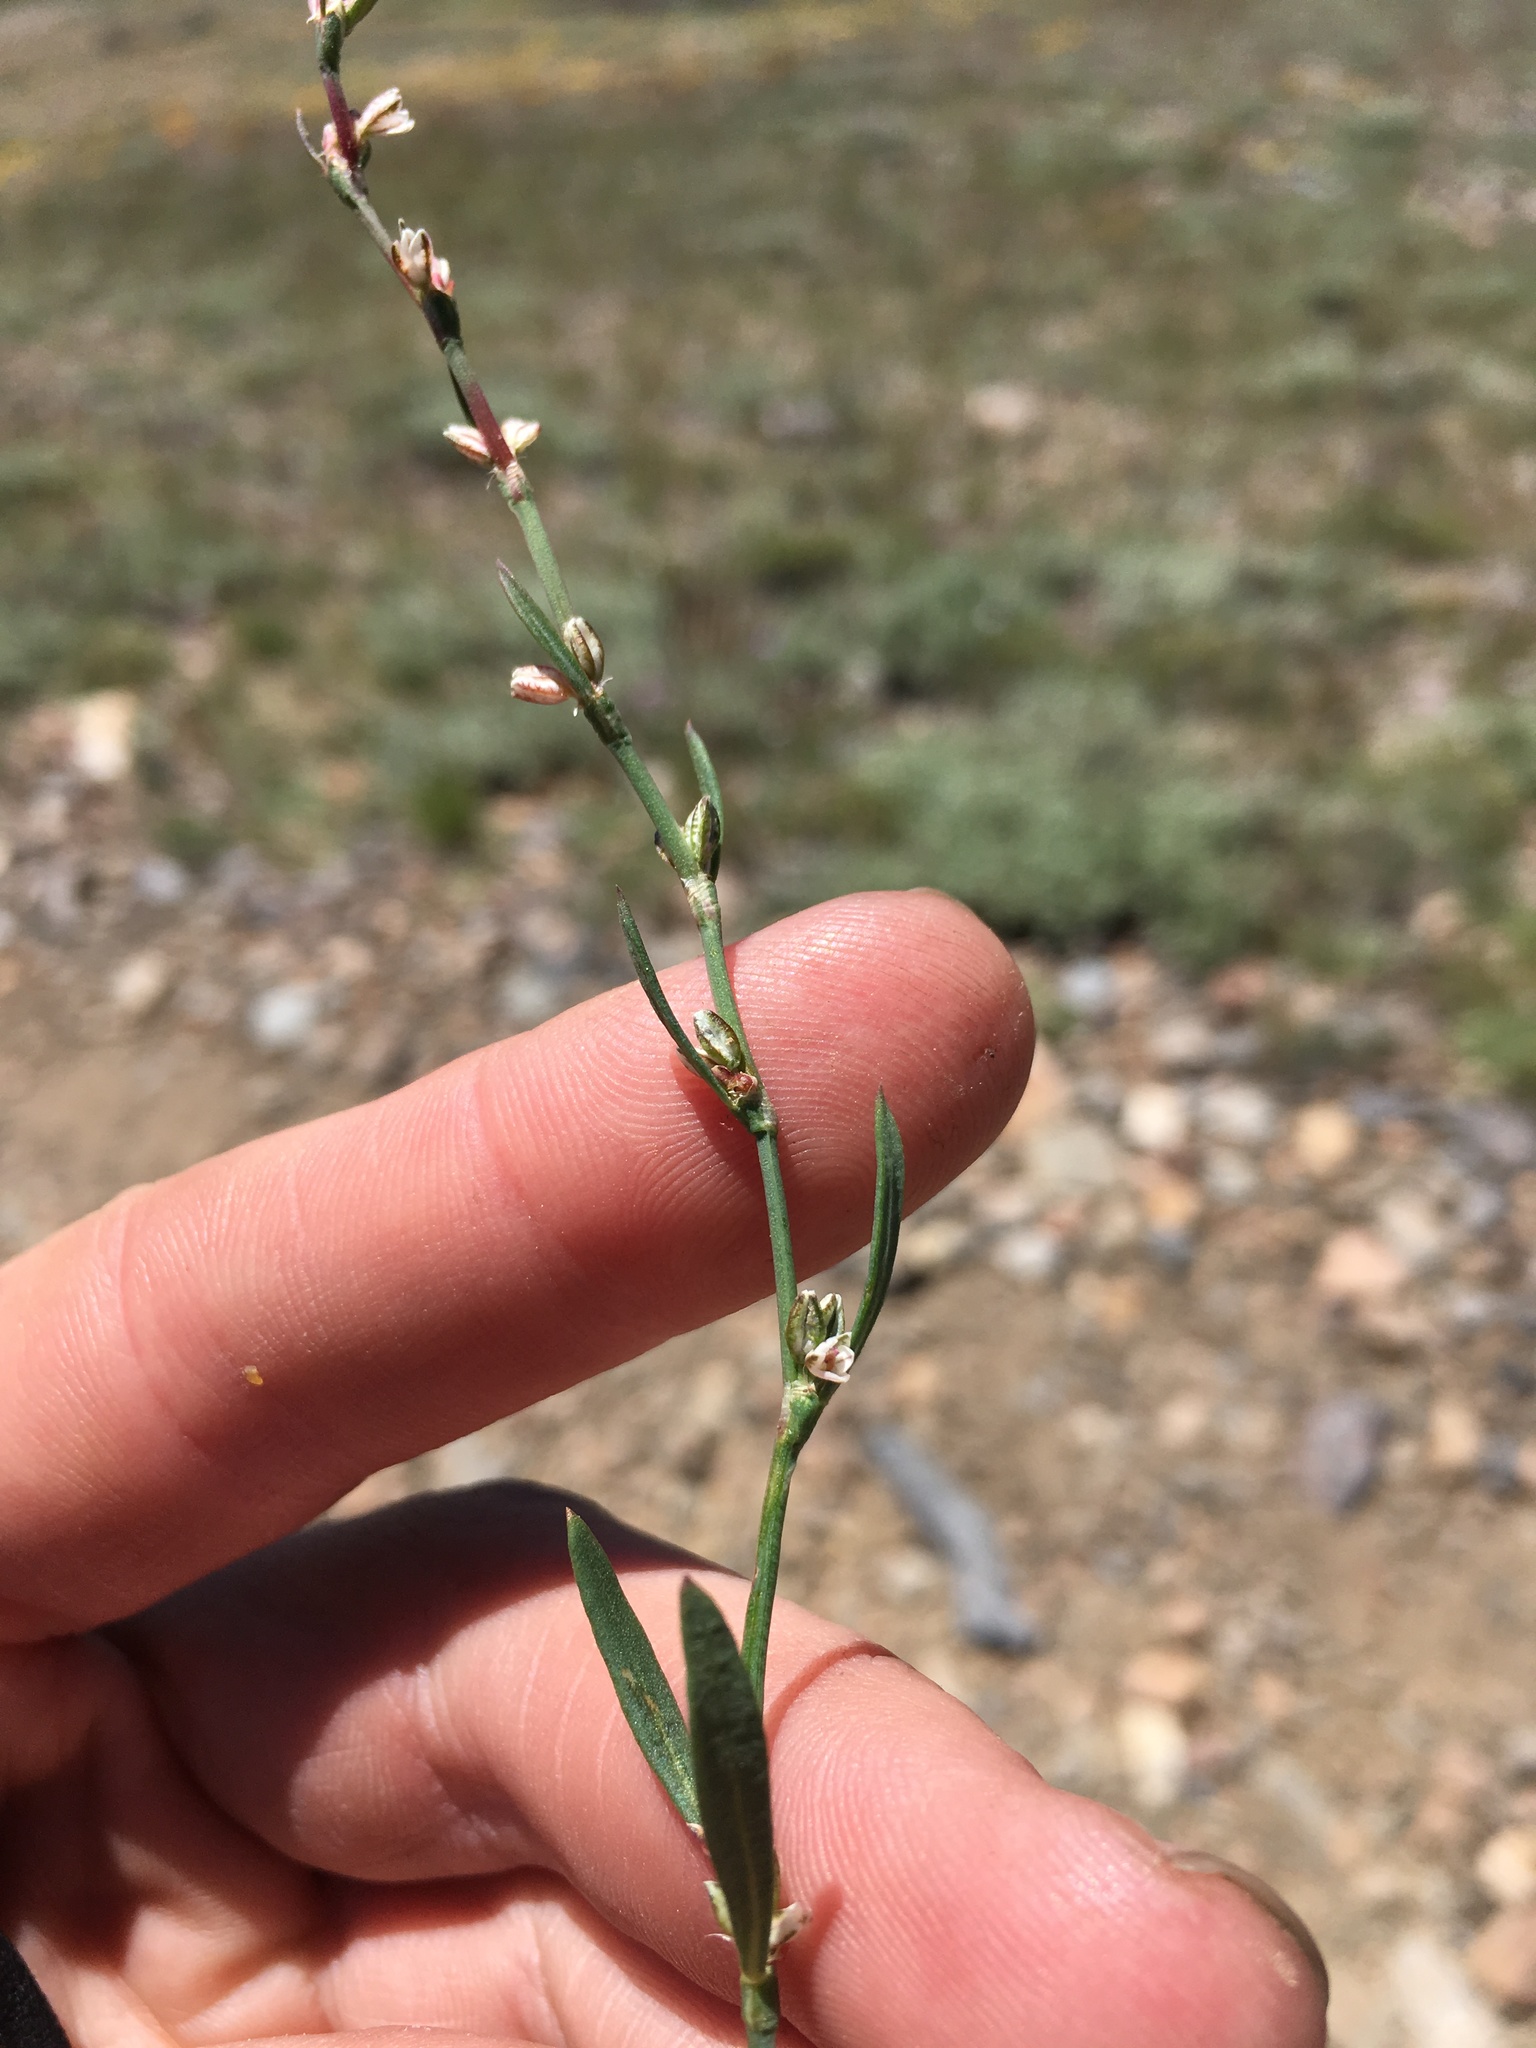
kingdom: Plantae
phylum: Tracheophyta
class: Magnoliopsida
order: Caryophyllales
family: Polygonaceae
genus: Polygonum
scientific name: Polygonum sawatchense
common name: Sawatch knotweed
